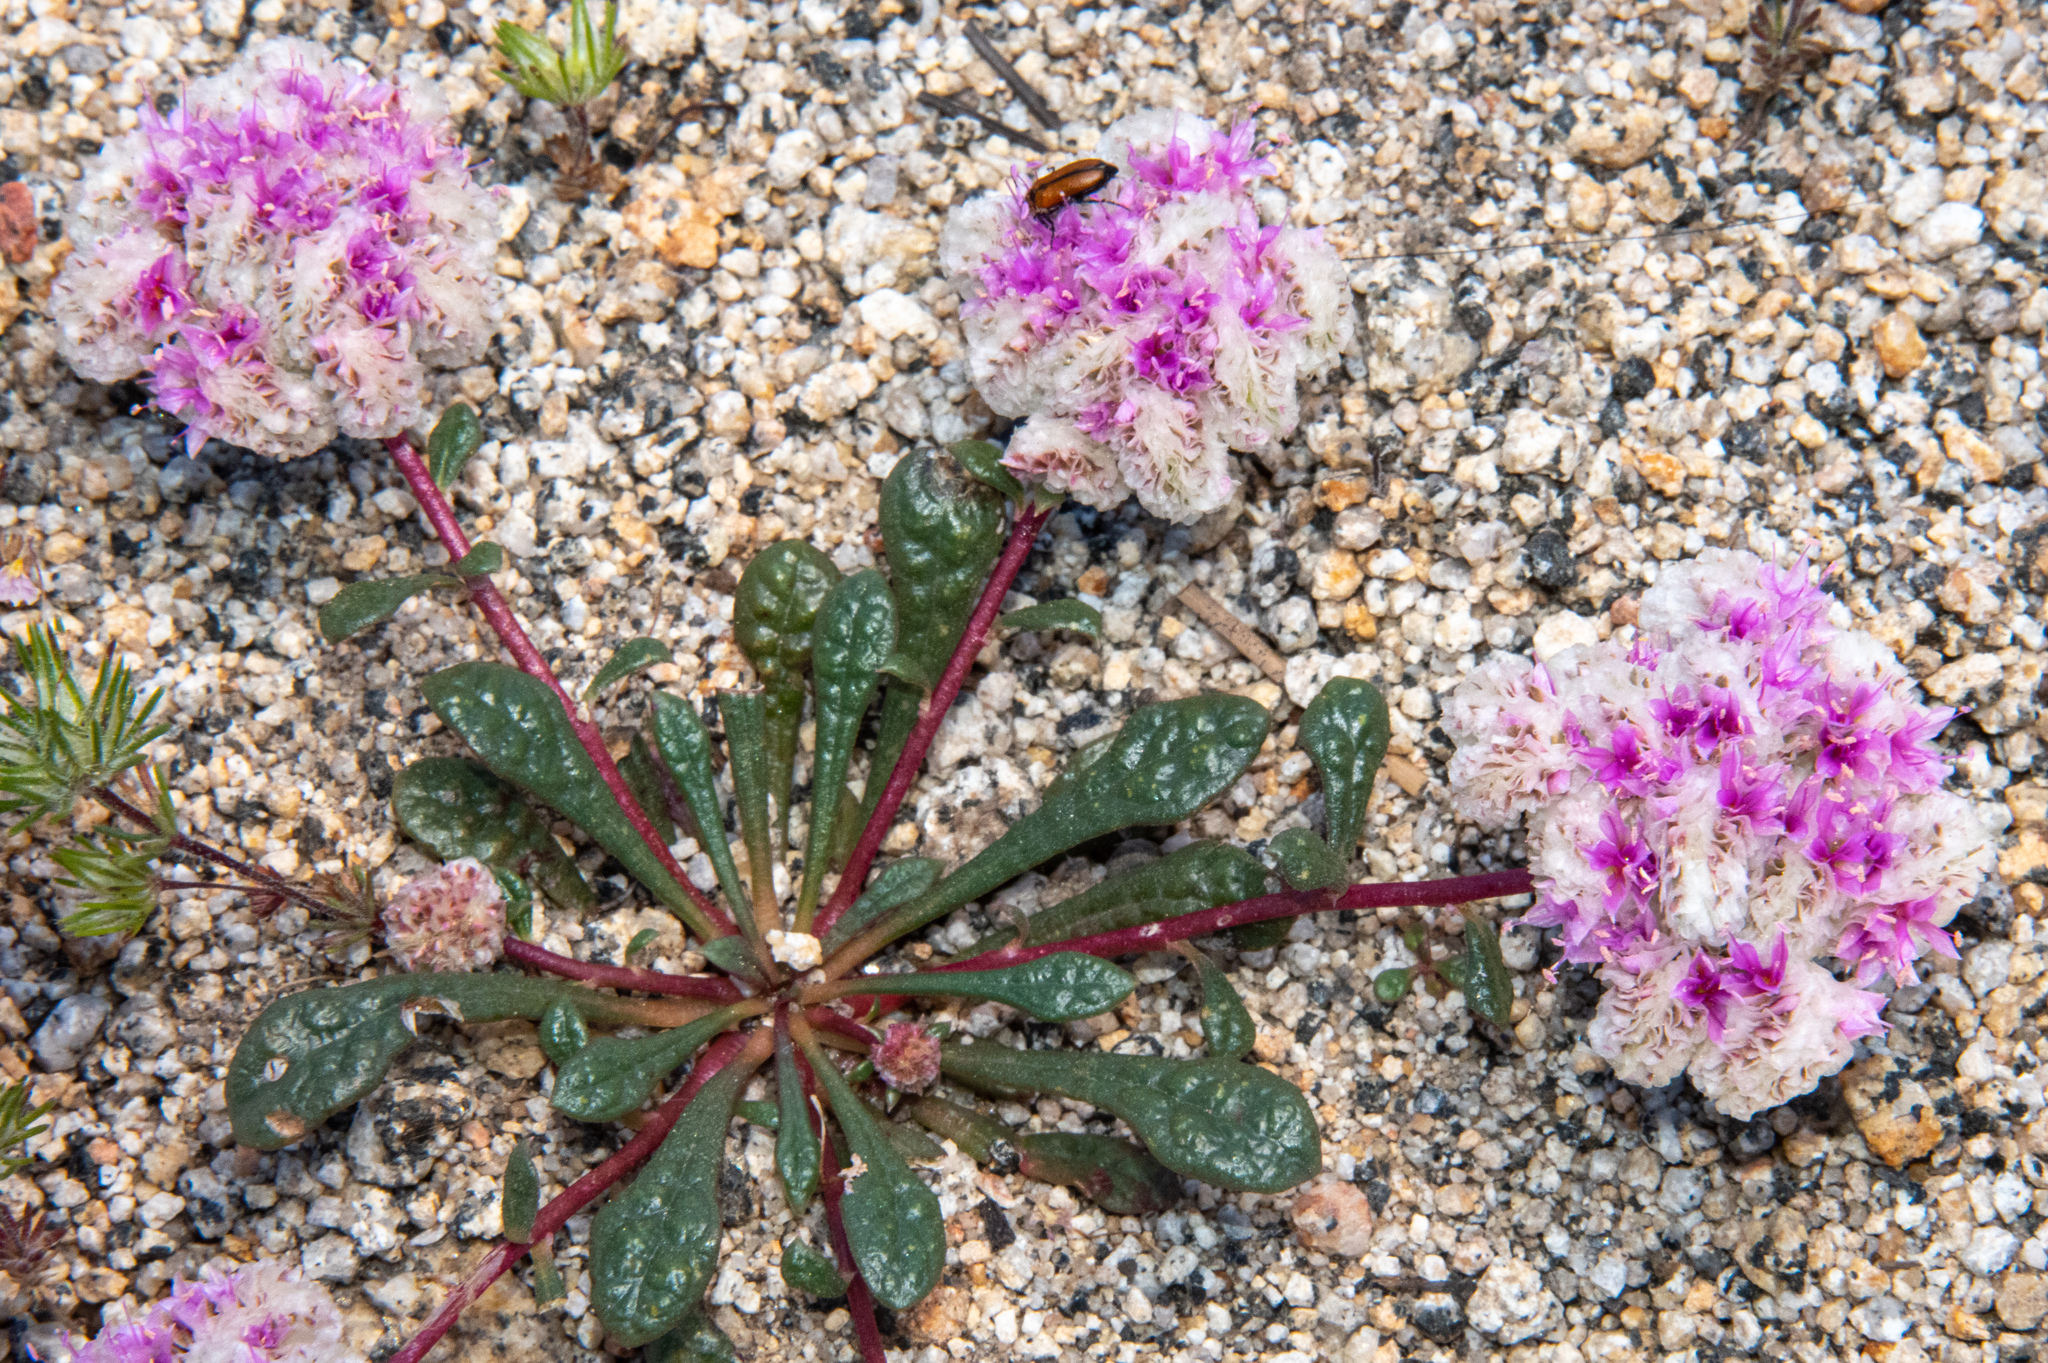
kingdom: Plantae
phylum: Tracheophyta
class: Magnoliopsida
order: Caryophyllales
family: Montiaceae
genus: Calyptridium
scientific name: Calyptridium monospermum
